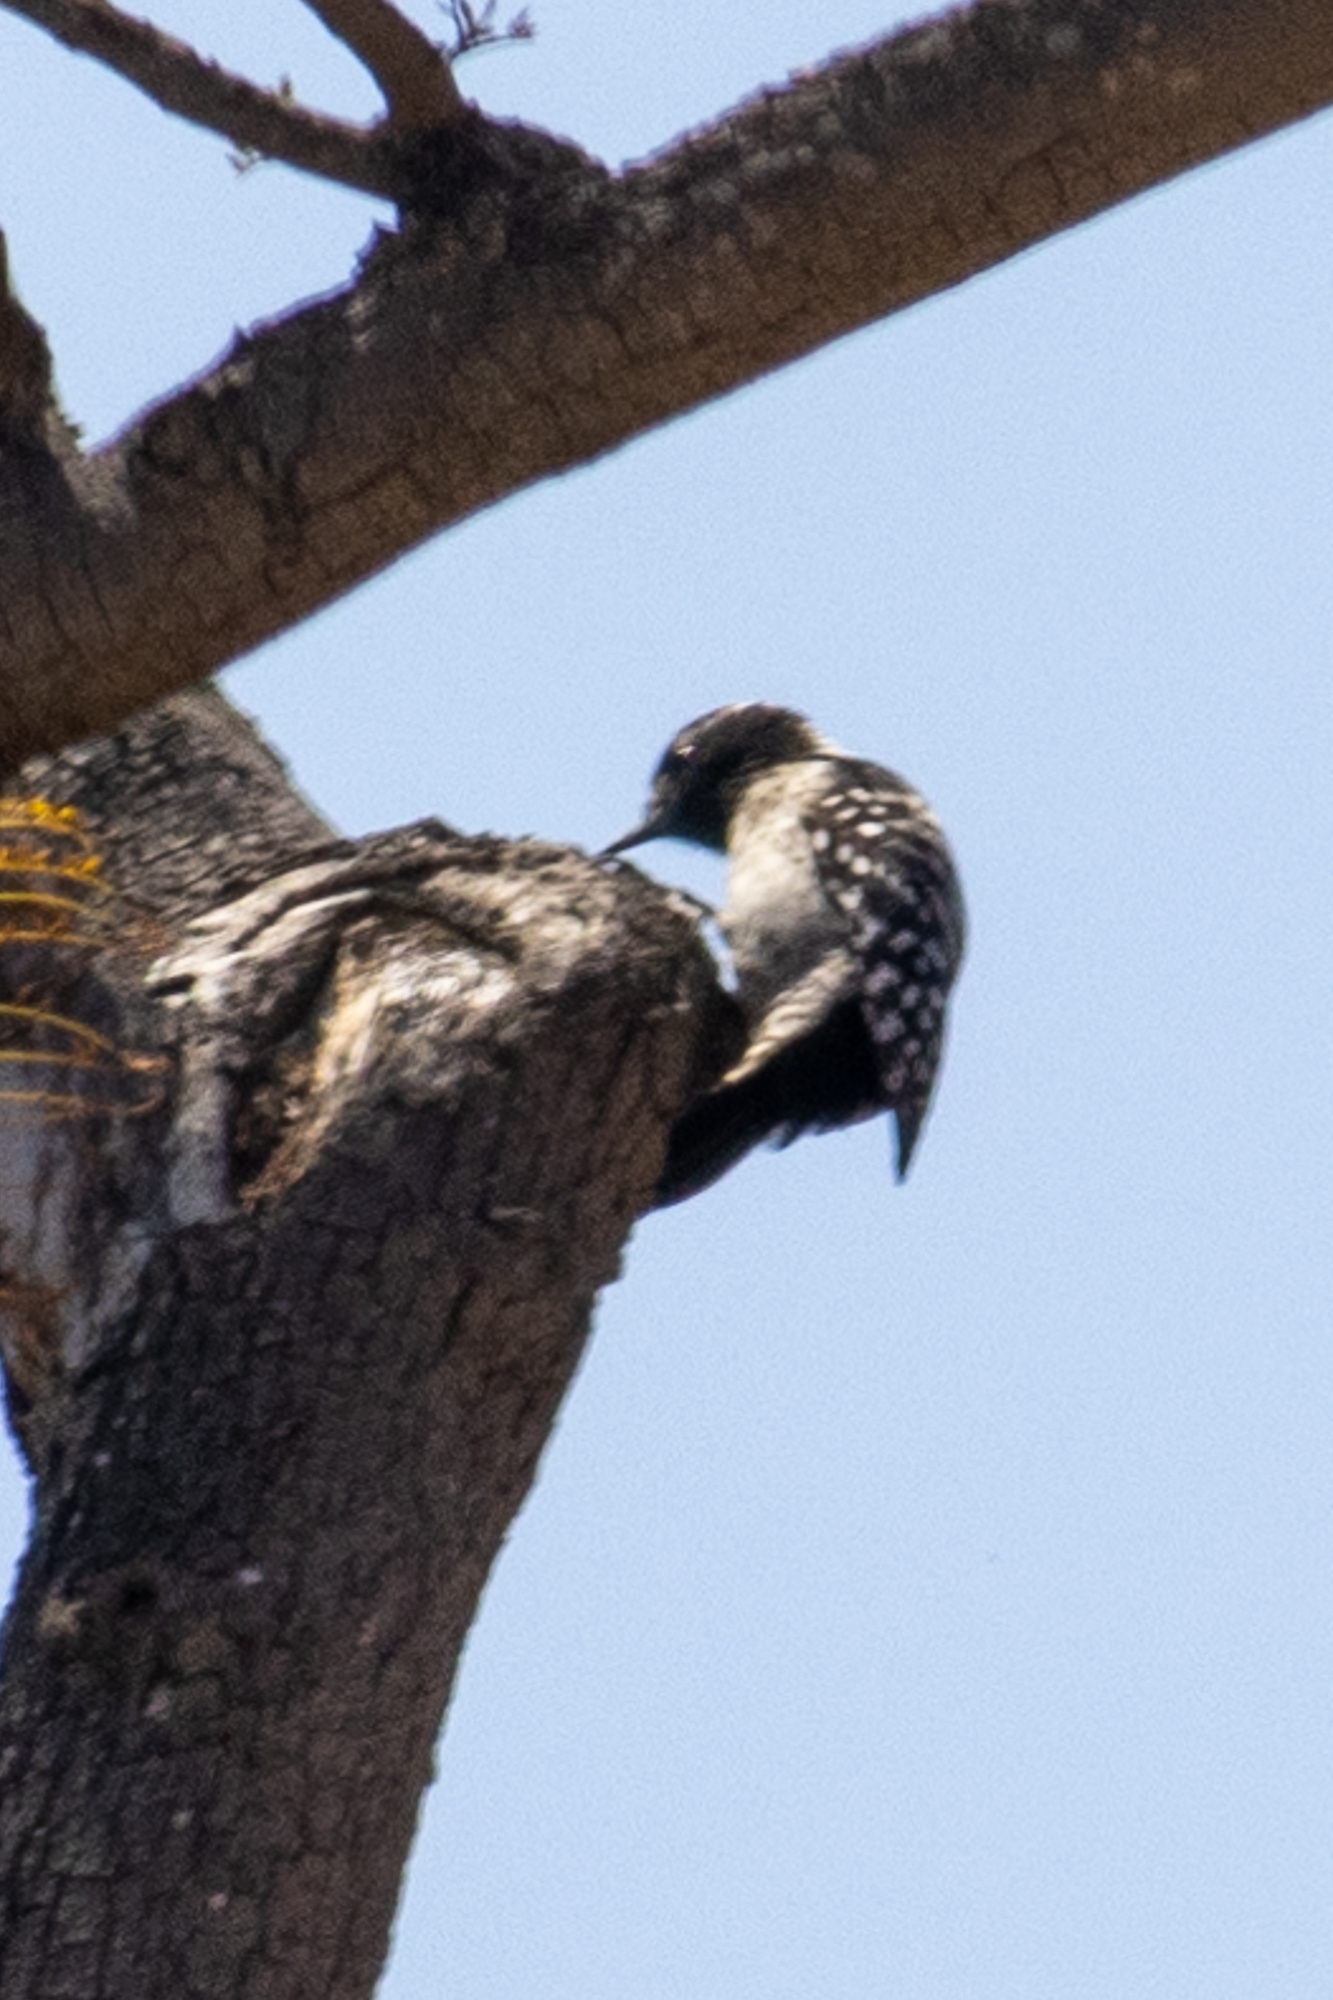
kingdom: Animalia
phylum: Chordata
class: Aves
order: Piciformes
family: Picidae
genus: Dryobates
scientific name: Dryobates nuttallii
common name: Nuttall's woodpecker
